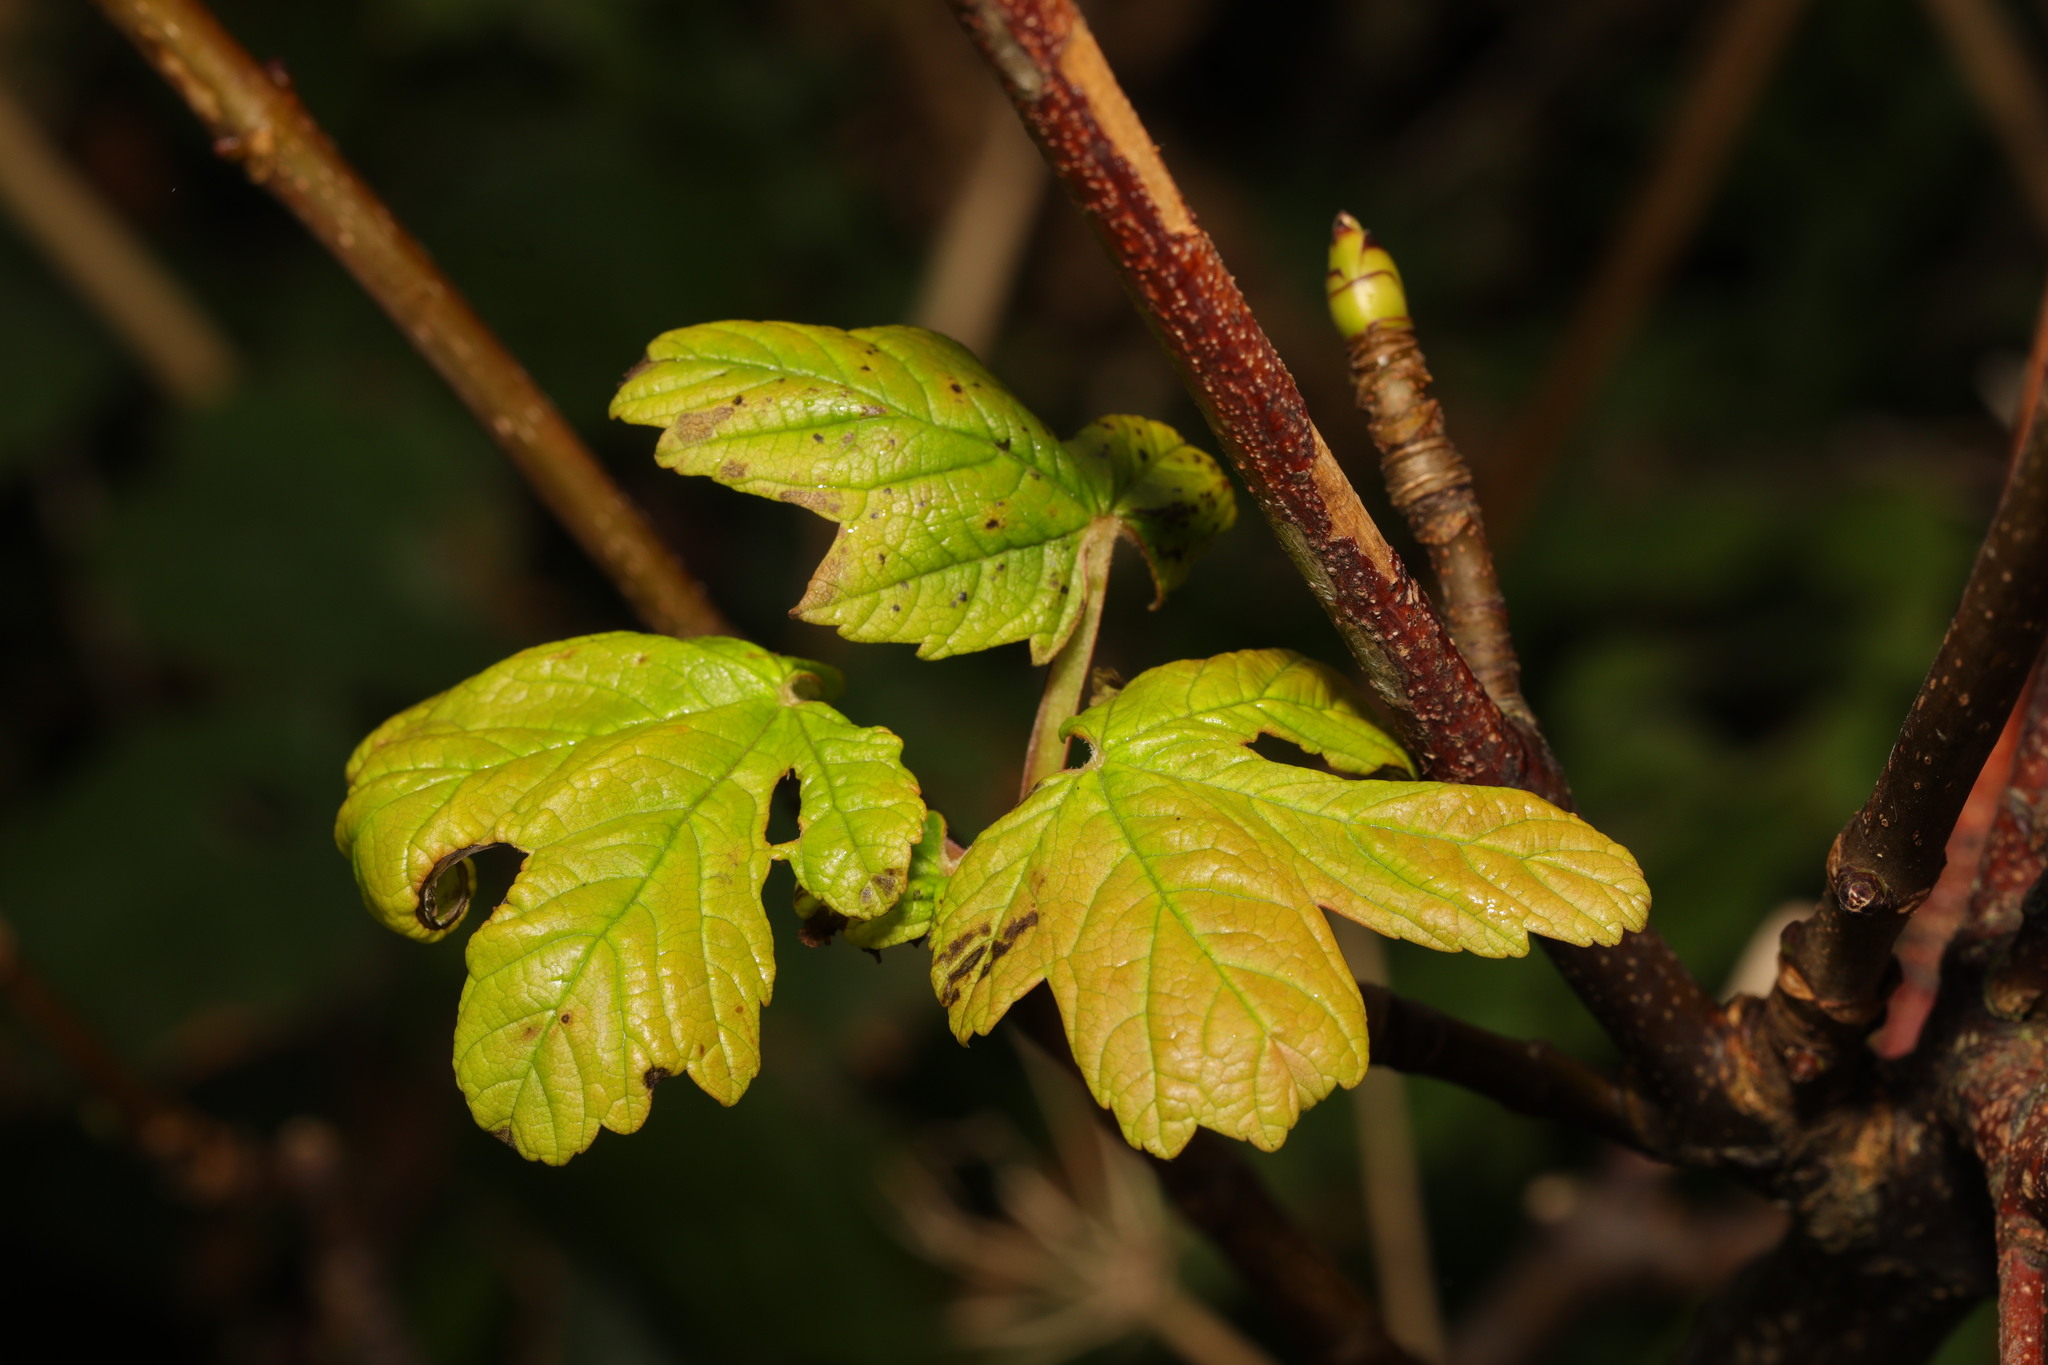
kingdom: Plantae
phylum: Tracheophyta
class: Magnoliopsida
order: Sapindales
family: Sapindaceae
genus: Acer
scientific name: Acer pseudoplatanus
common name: Sycamore
